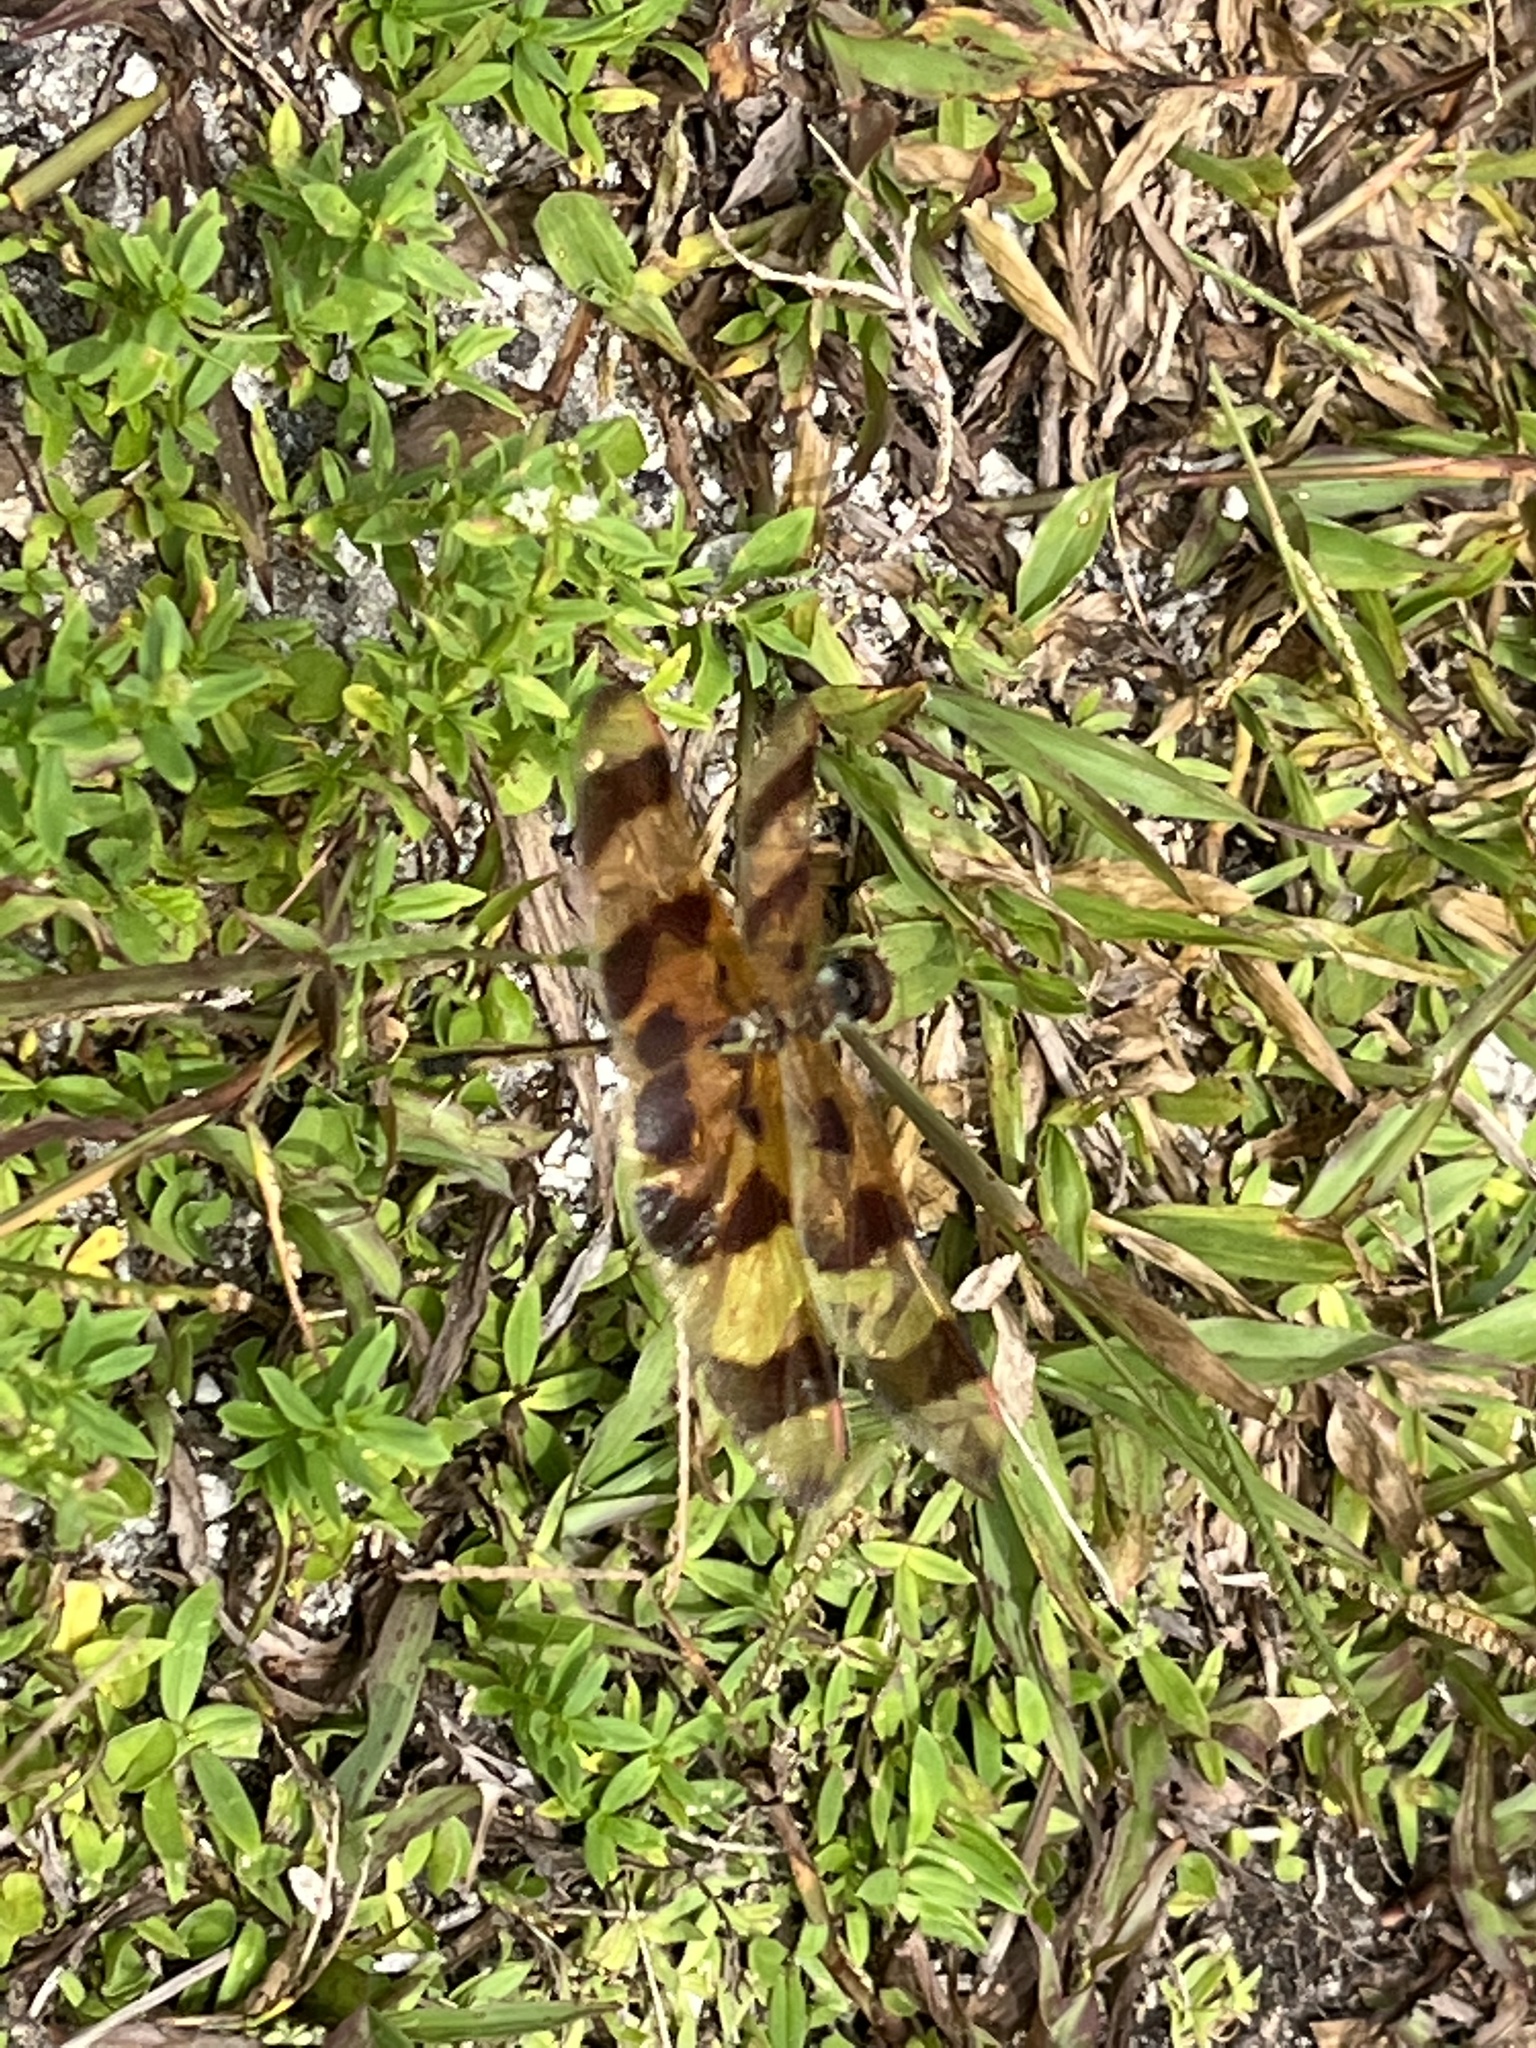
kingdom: Animalia
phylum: Arthropoda
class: Insecta
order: Odonata
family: Libellulidae
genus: Celithemis
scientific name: Celithemis eponina
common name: Halloween pennant
